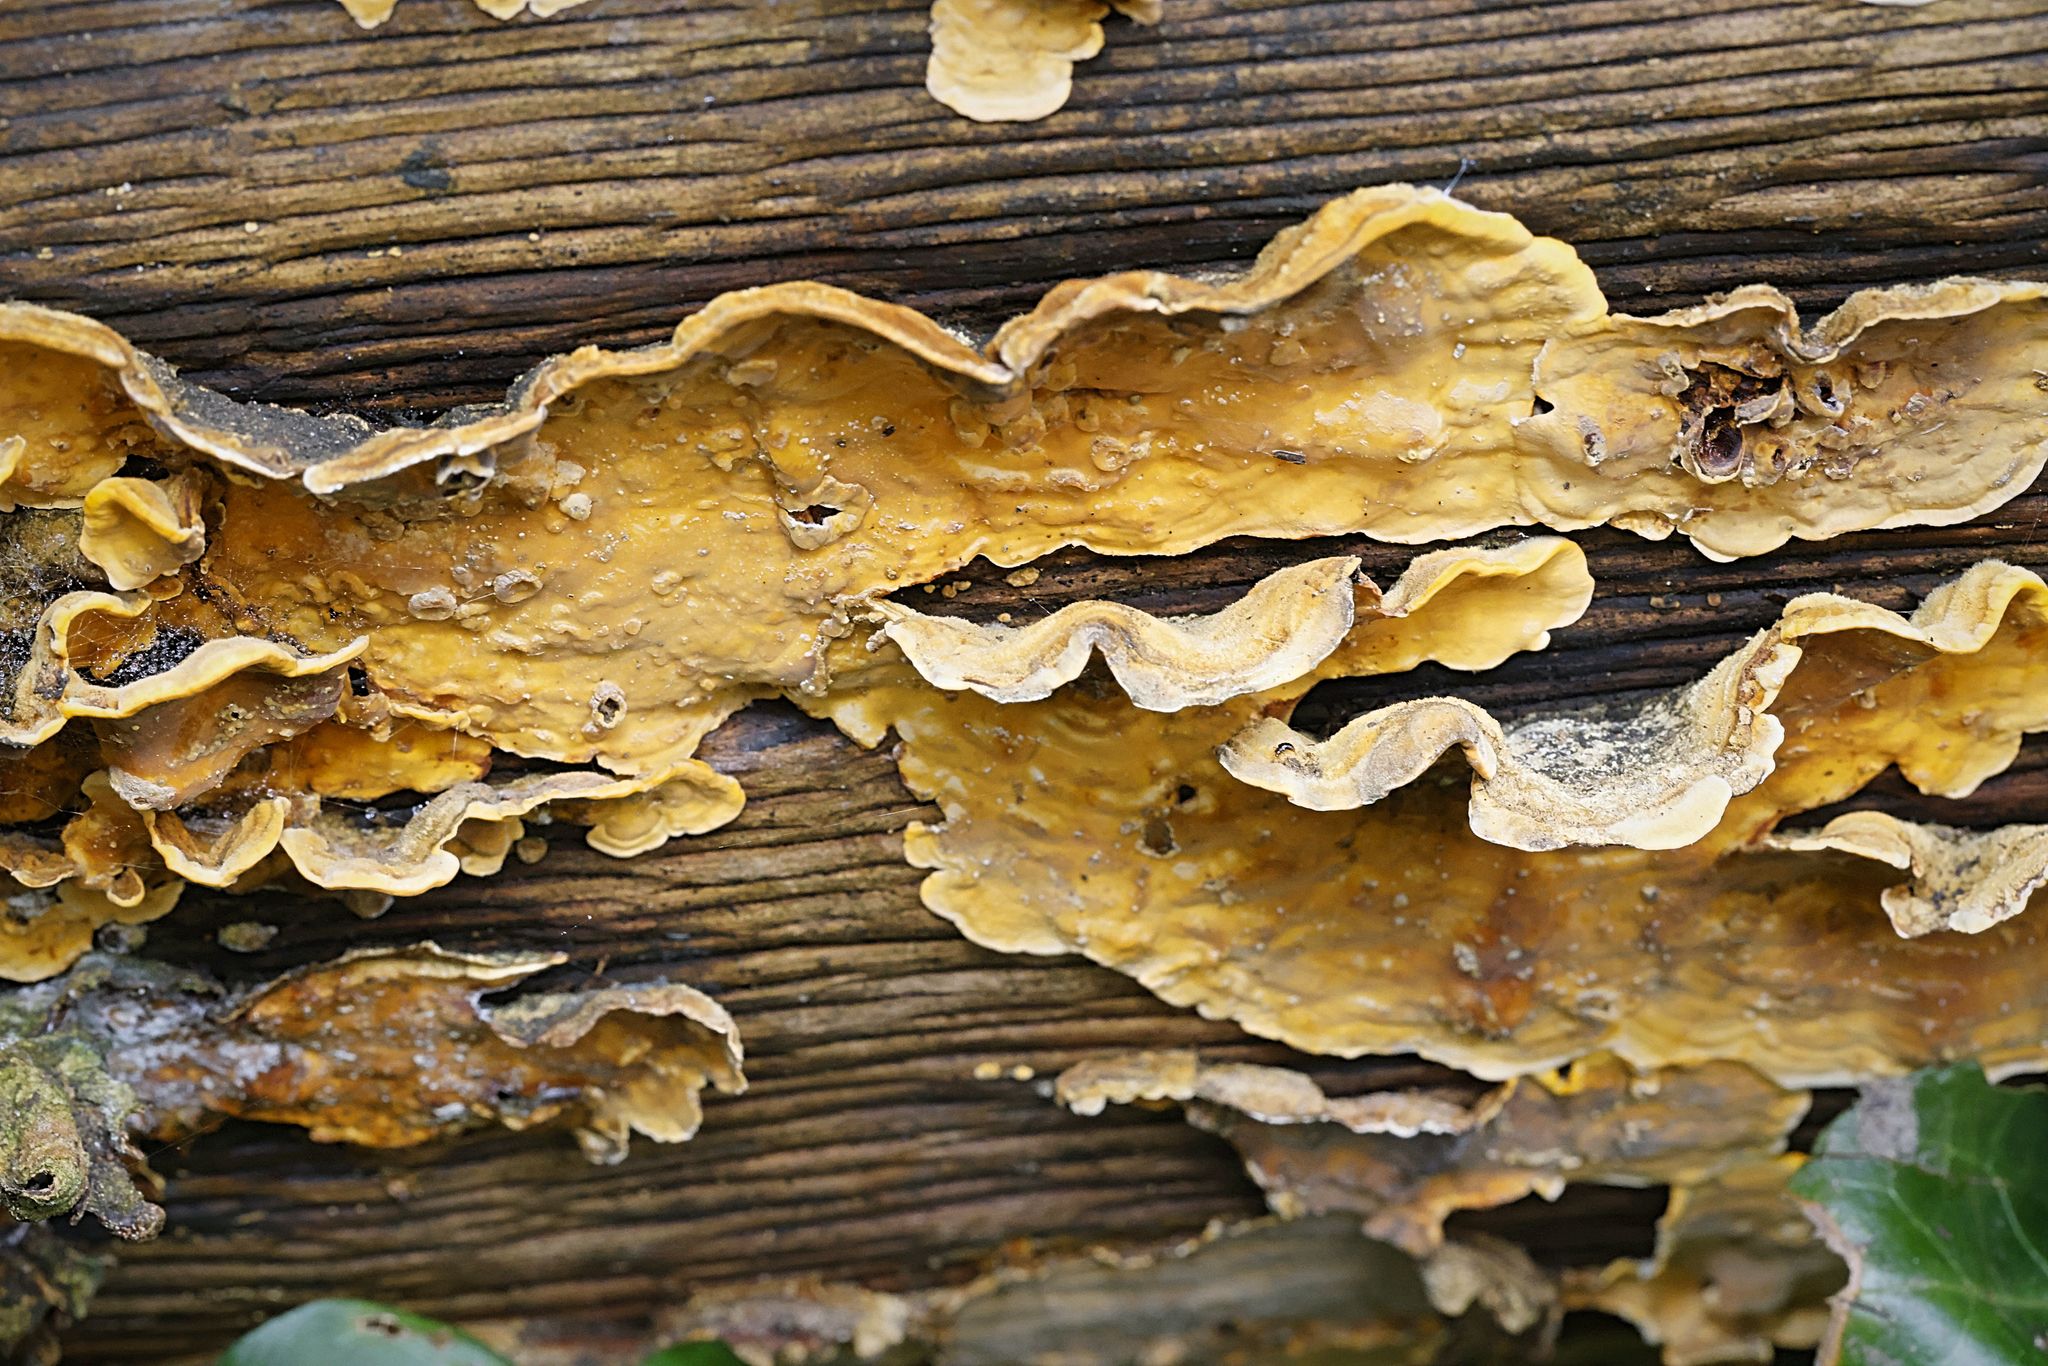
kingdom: Fungi
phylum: Basidiomycota
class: Agaricomycetes
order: Russulales
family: Stereaceae
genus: Stereum
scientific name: Stereum hirsutum
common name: Hairy curtain crust
